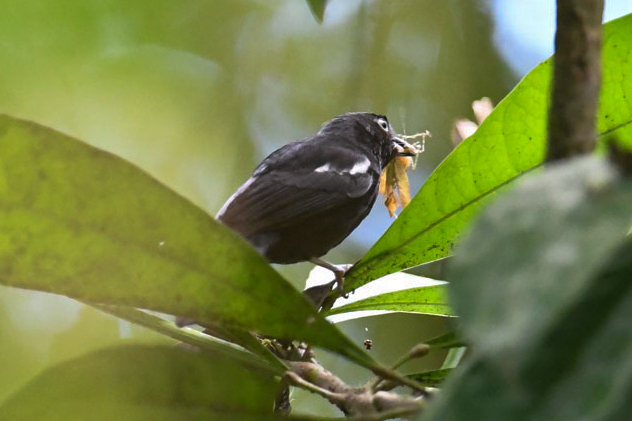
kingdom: Animalia
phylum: Chordata
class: Aves
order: Passeriformes
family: Thraupidae
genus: Loriotus
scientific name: Loriotus luctuosus
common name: White-shouldered tanager
